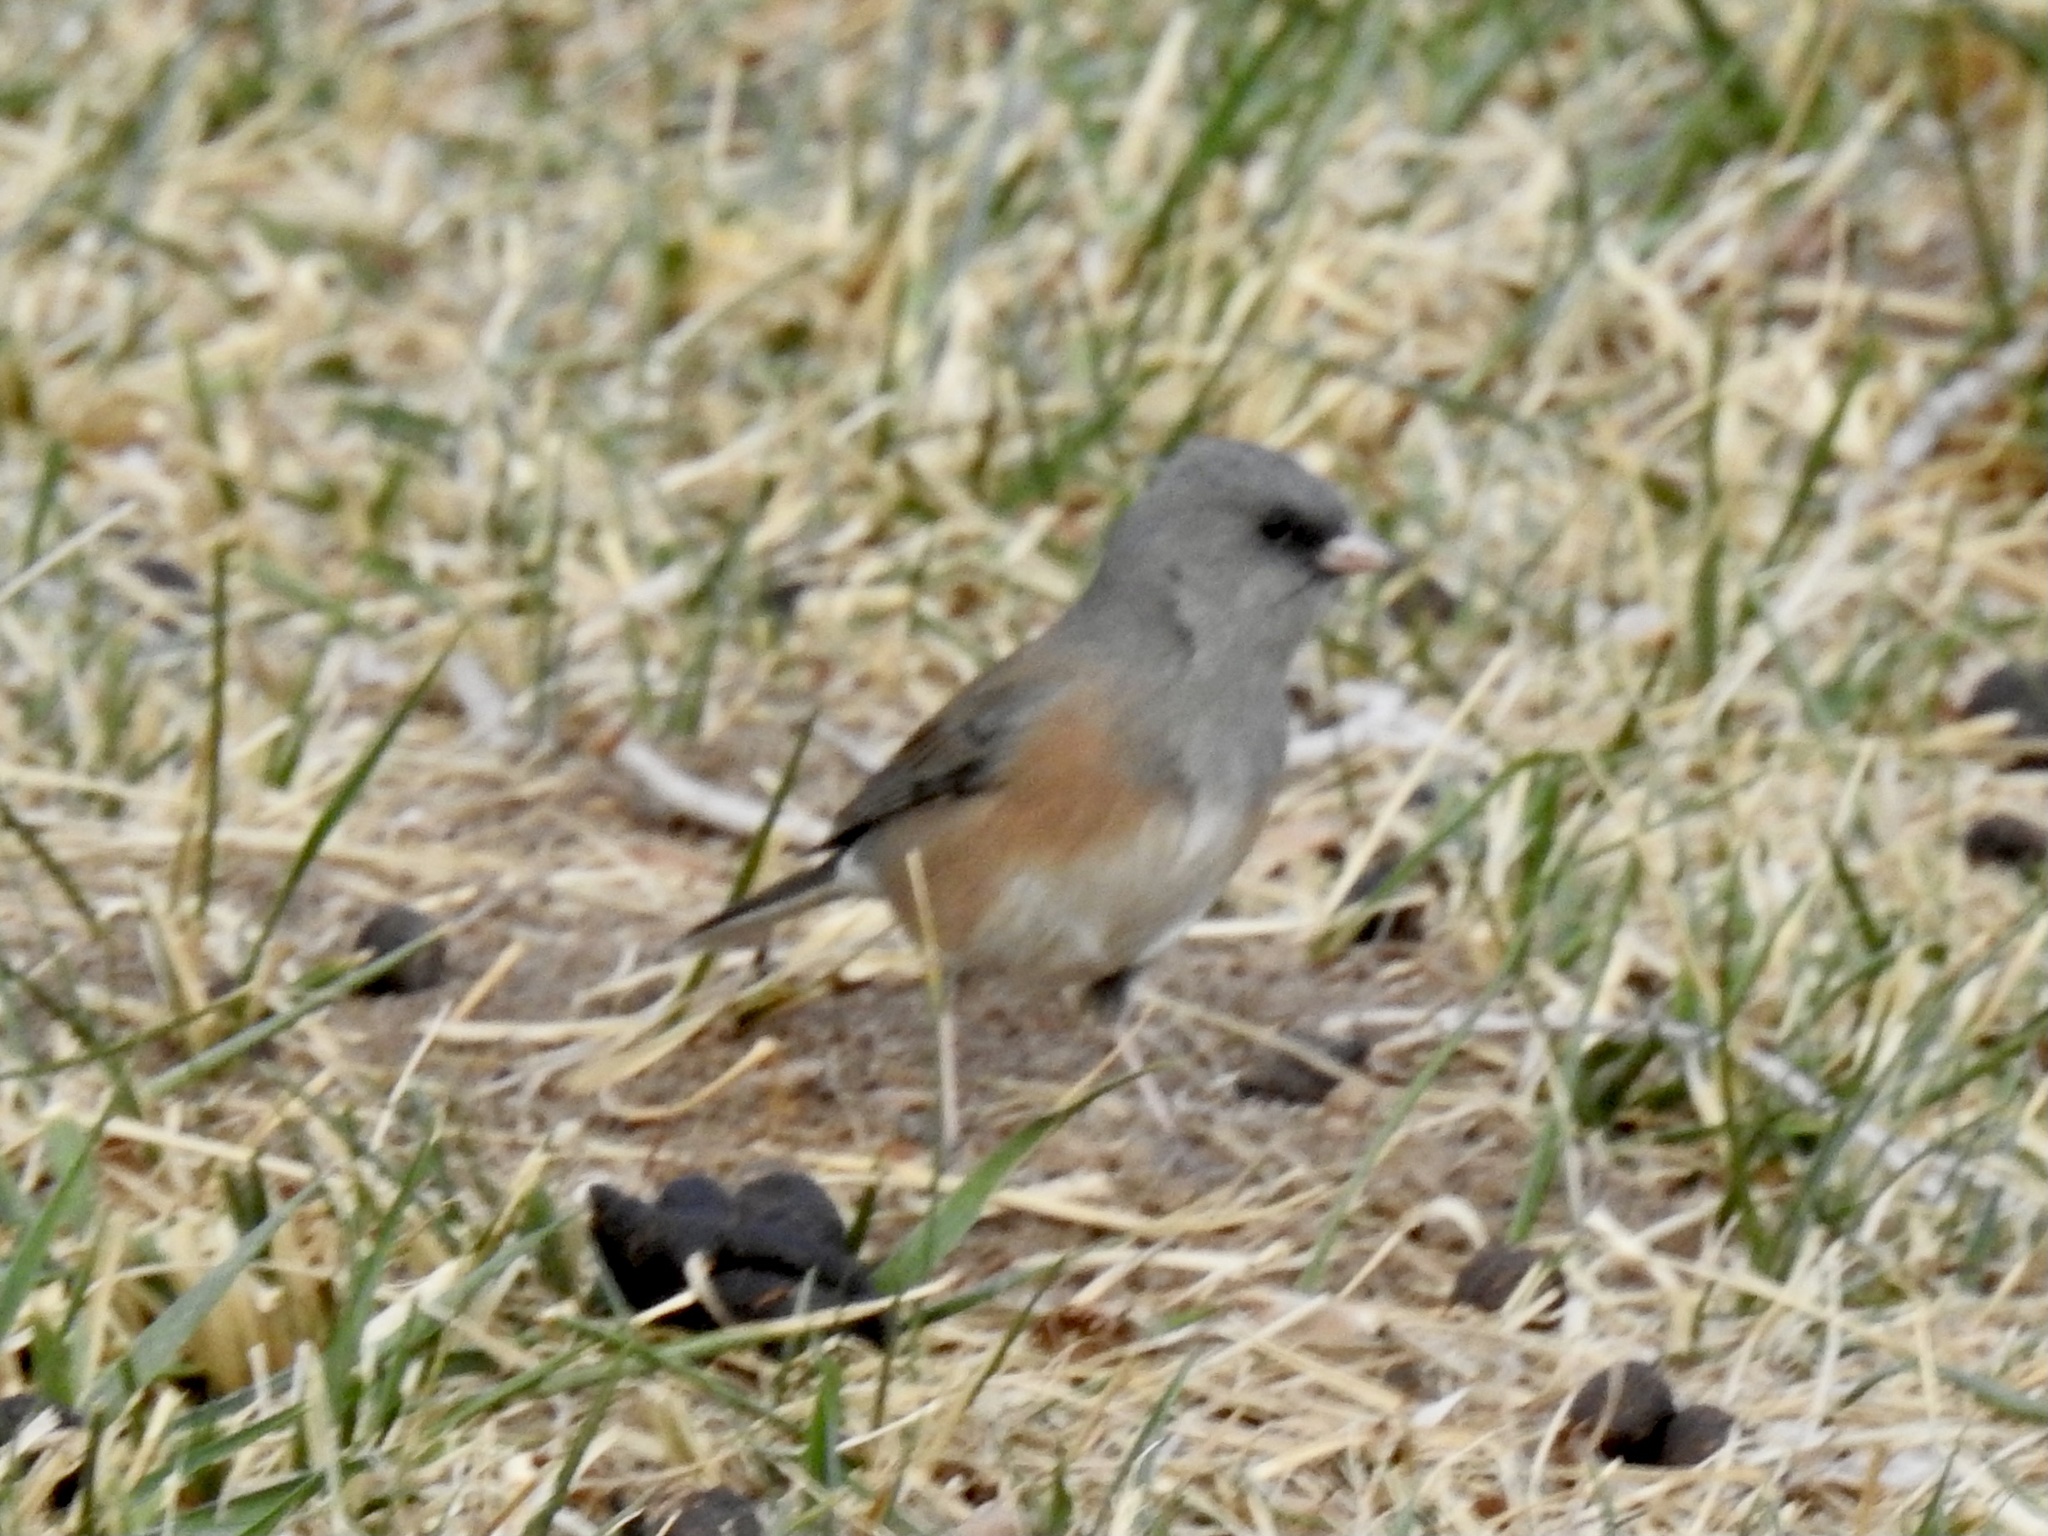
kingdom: Animalia
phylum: Chordata
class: Aves
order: Passeriformes
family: Passerellidae
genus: Junco
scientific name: Junco hyemalis
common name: Dark-eyed junco
